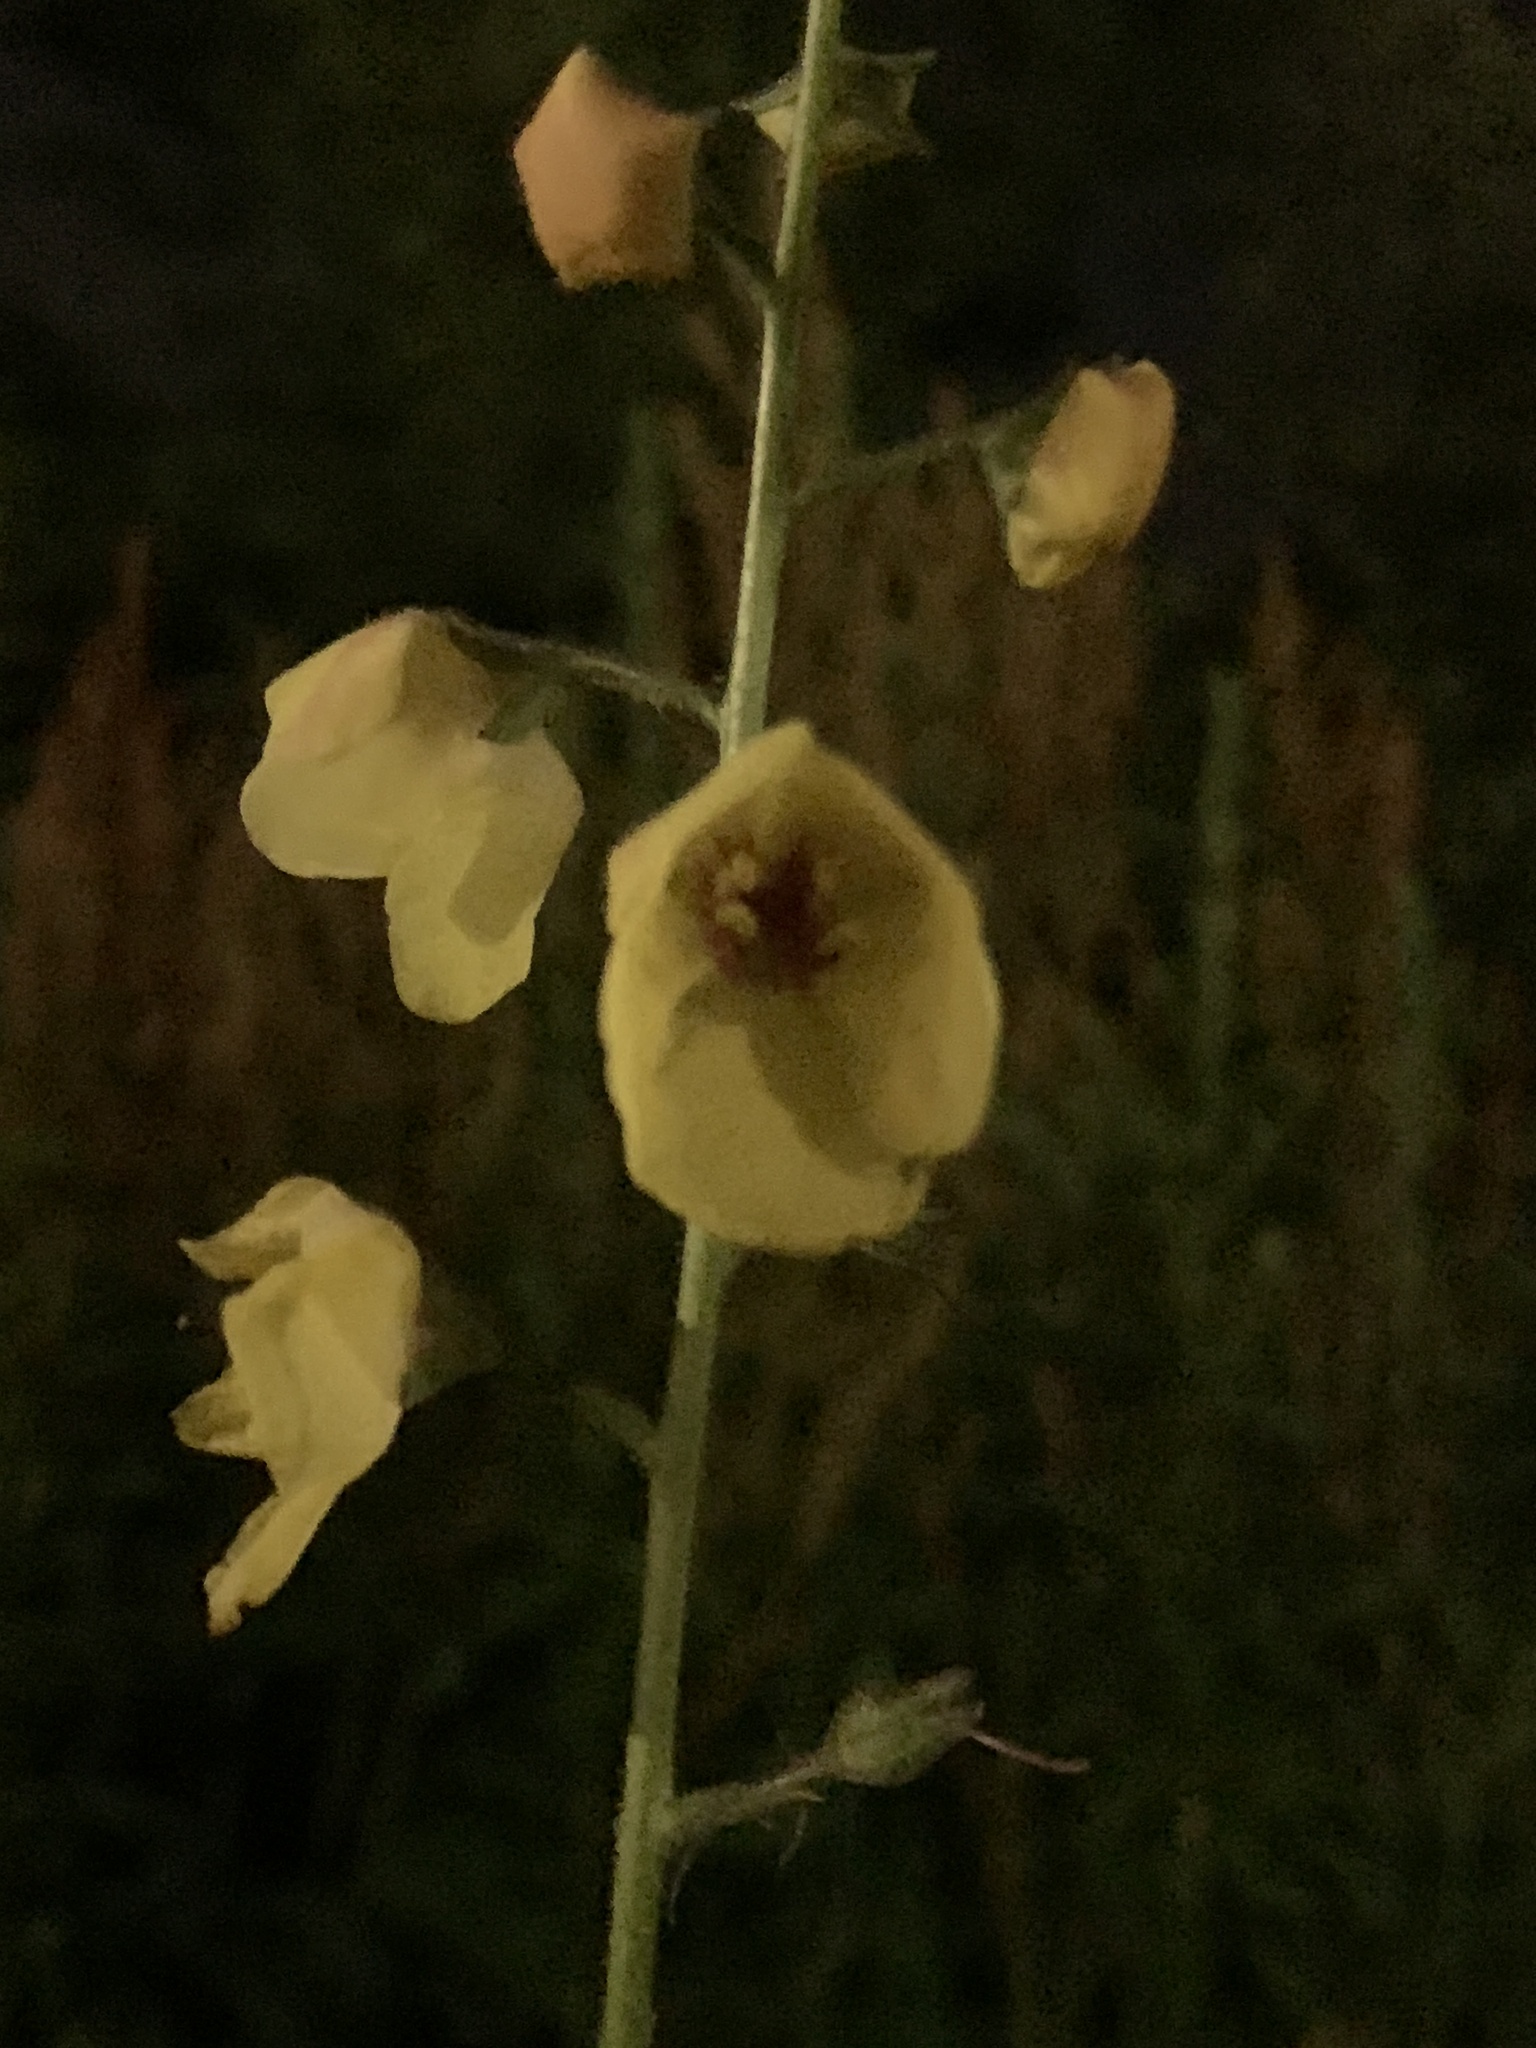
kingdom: Plantae
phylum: Tracheophyta
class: Magnoliopsida
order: Lamiales
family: Scrophulariaceae
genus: Verbascum
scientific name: Verbascum blattaria
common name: Moth mullein
